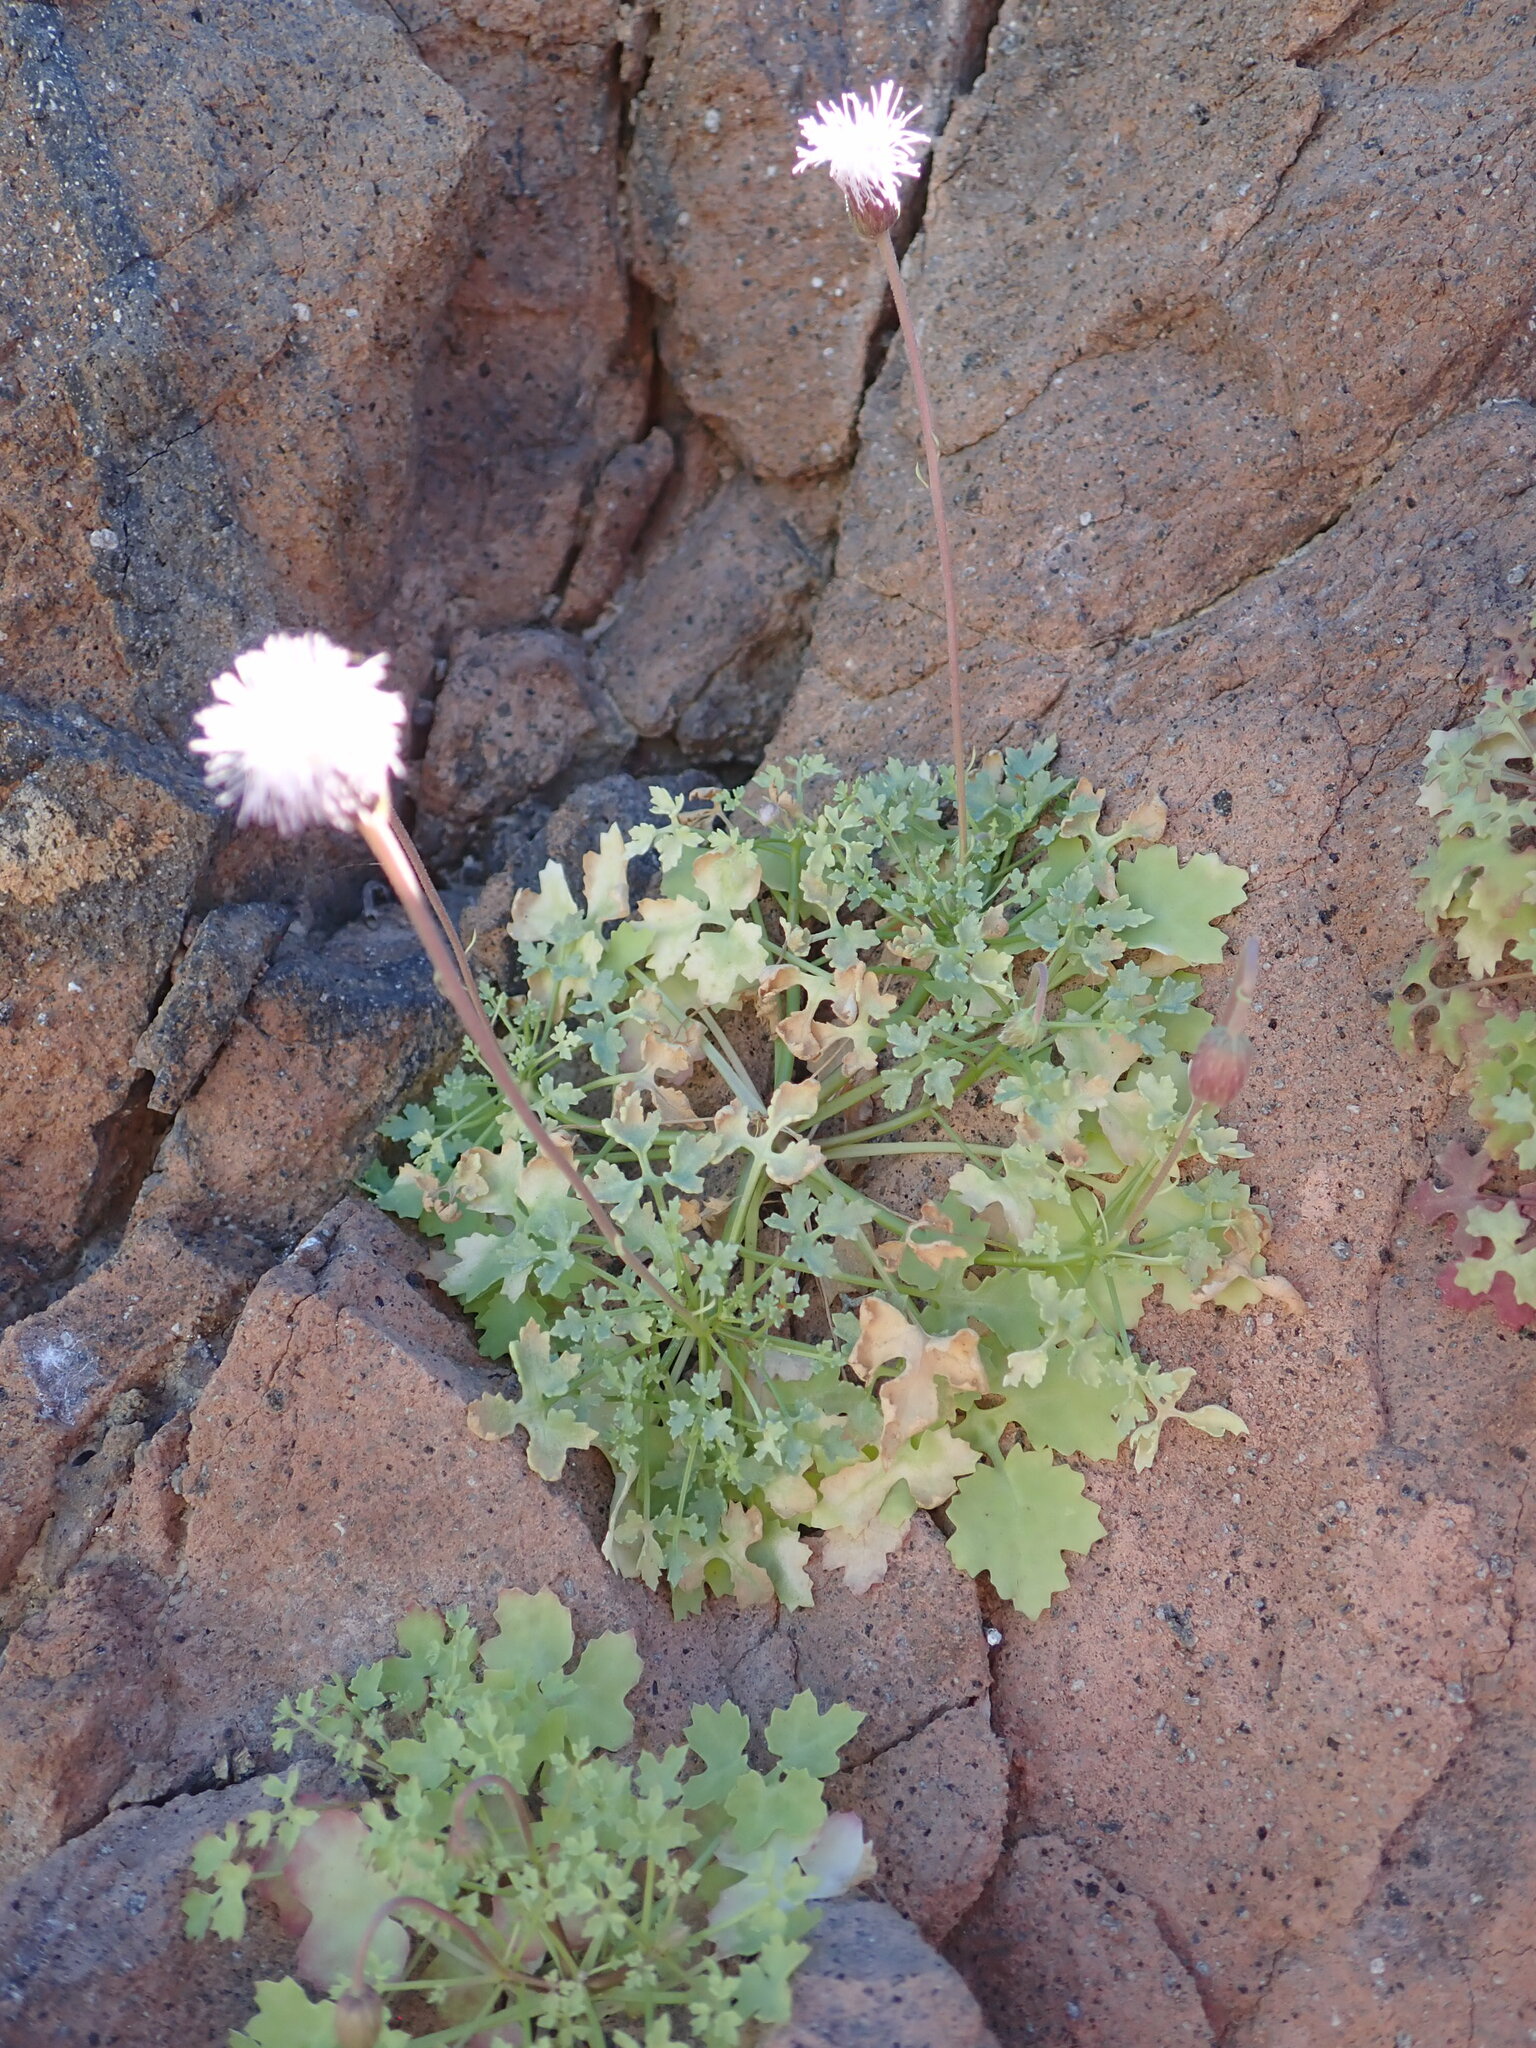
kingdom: Plantae
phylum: Tracheophyta
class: Magnoliopsida
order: Asterales
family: Asteraceae
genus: Hofmeisteria
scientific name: Hofmeisteria fasciculata
